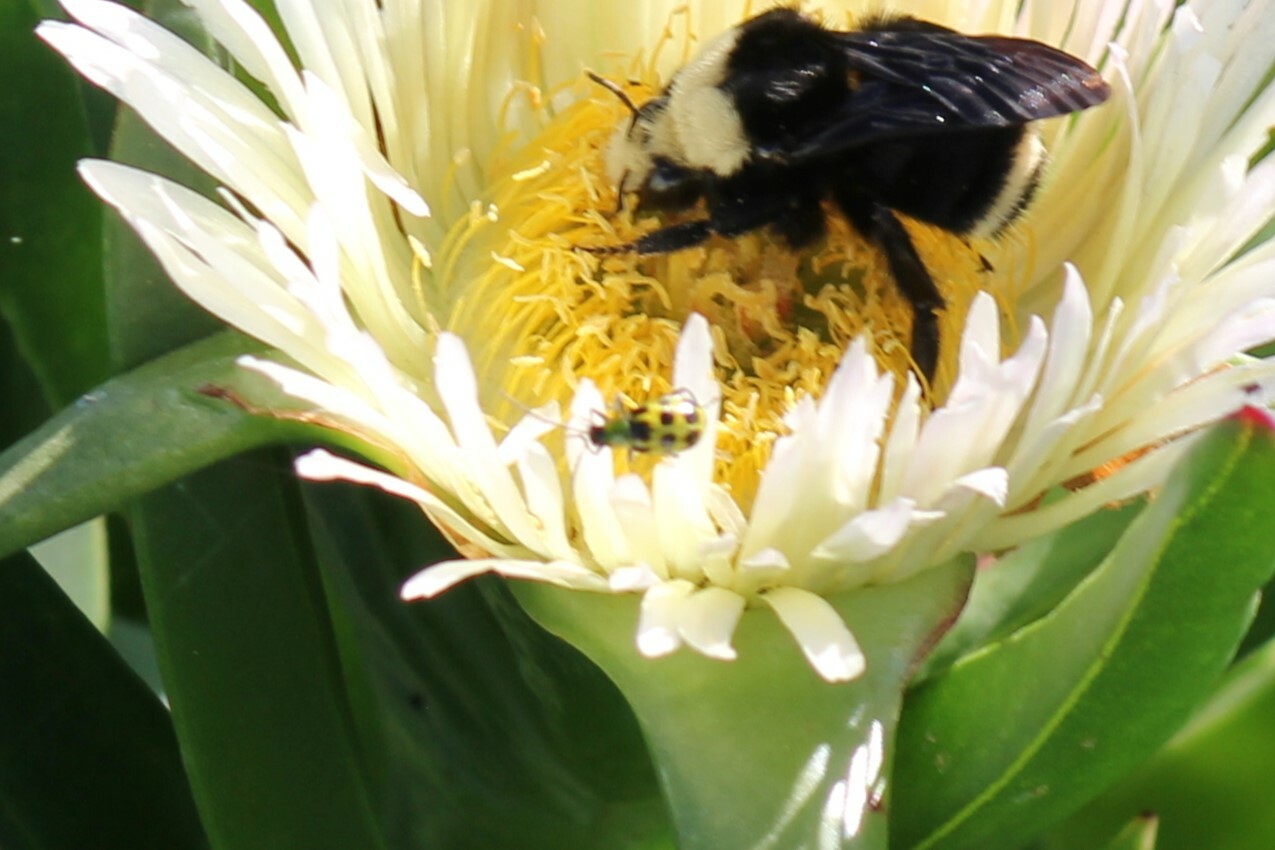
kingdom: Animalia
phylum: Arthropoda
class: Insecta
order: Coleoptera
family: Chrysomelidae
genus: Diabrotica
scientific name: Diabrotica undecimpunctata
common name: Spotted cucumber beetle
